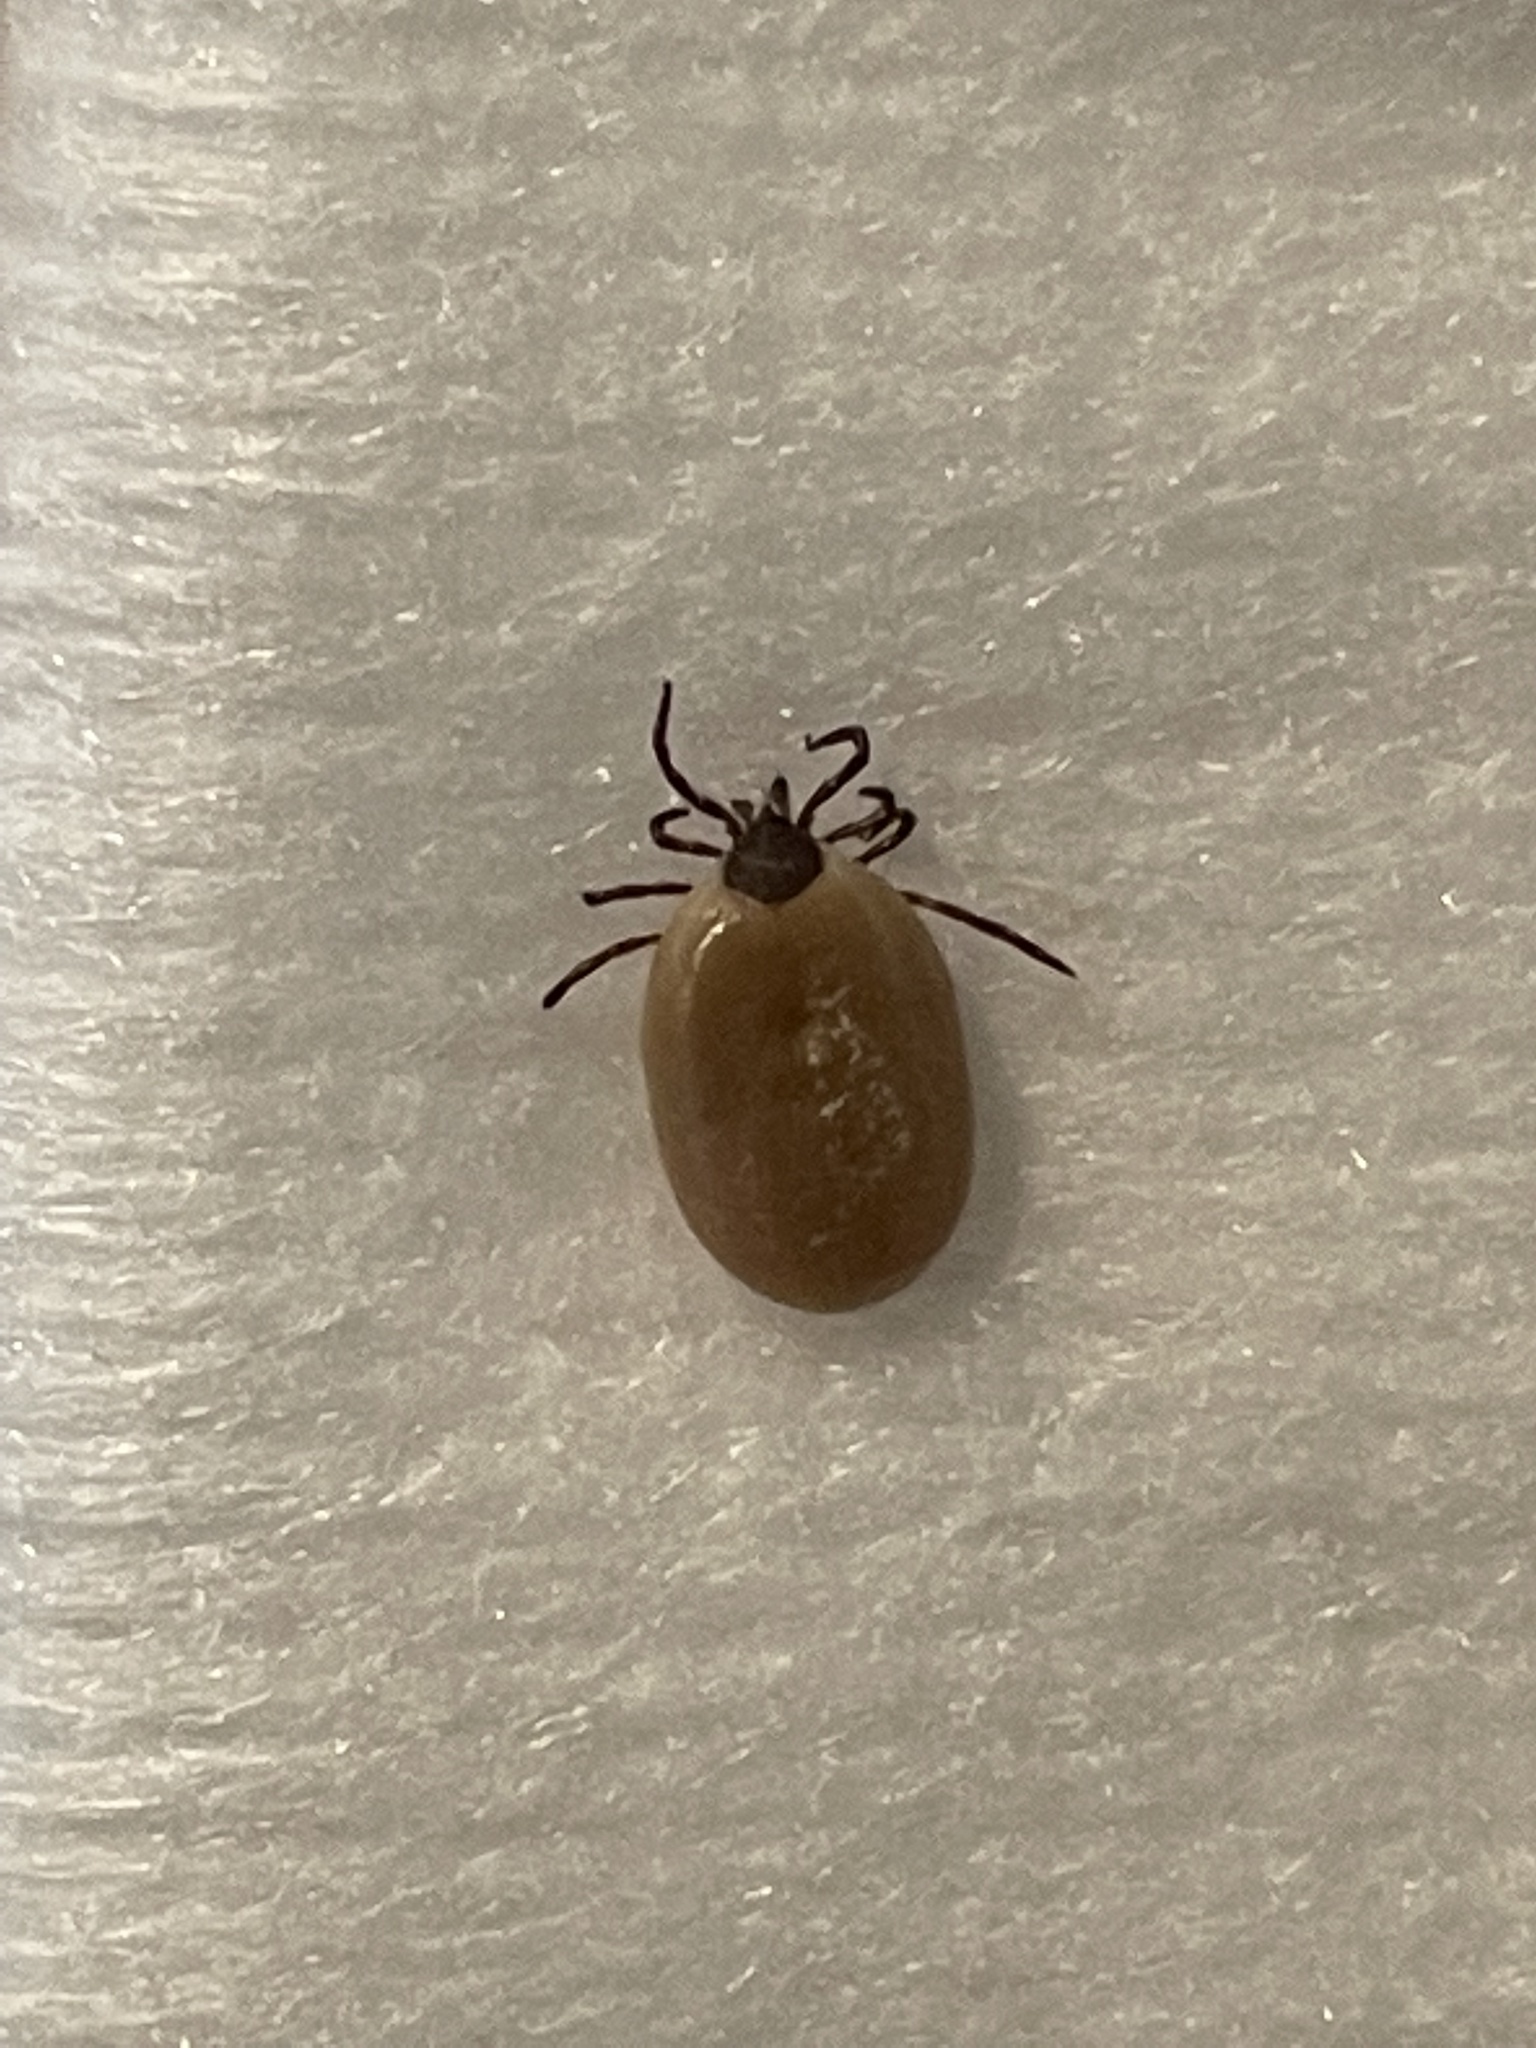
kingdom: Animalia
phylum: Arthropoda
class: Arachnida
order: Ixodida
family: Ixodidae
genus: Ixodes
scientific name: Ixodes scapularis
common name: Black legged tick
